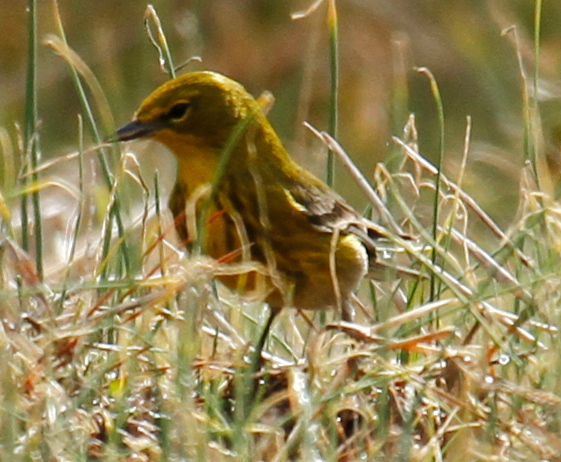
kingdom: Animalia
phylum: Chordata
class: Aves
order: Passeriformes
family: Parulidae
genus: Setophaga
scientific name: Setophaga pinus
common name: Pine warbler
